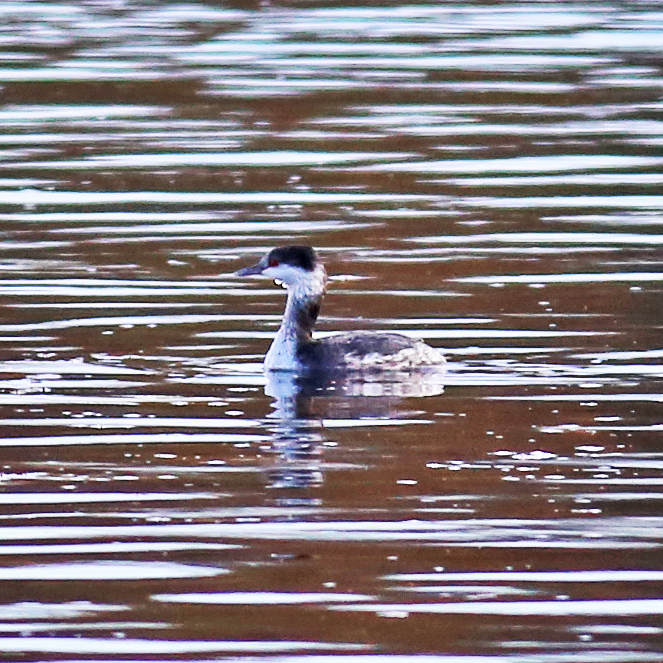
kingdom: Animalia
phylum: Chordata
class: Aves
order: Podicipediformes
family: Podicipedidae
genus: Podiceps
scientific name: Podiceps auritus
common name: Horned grebe
